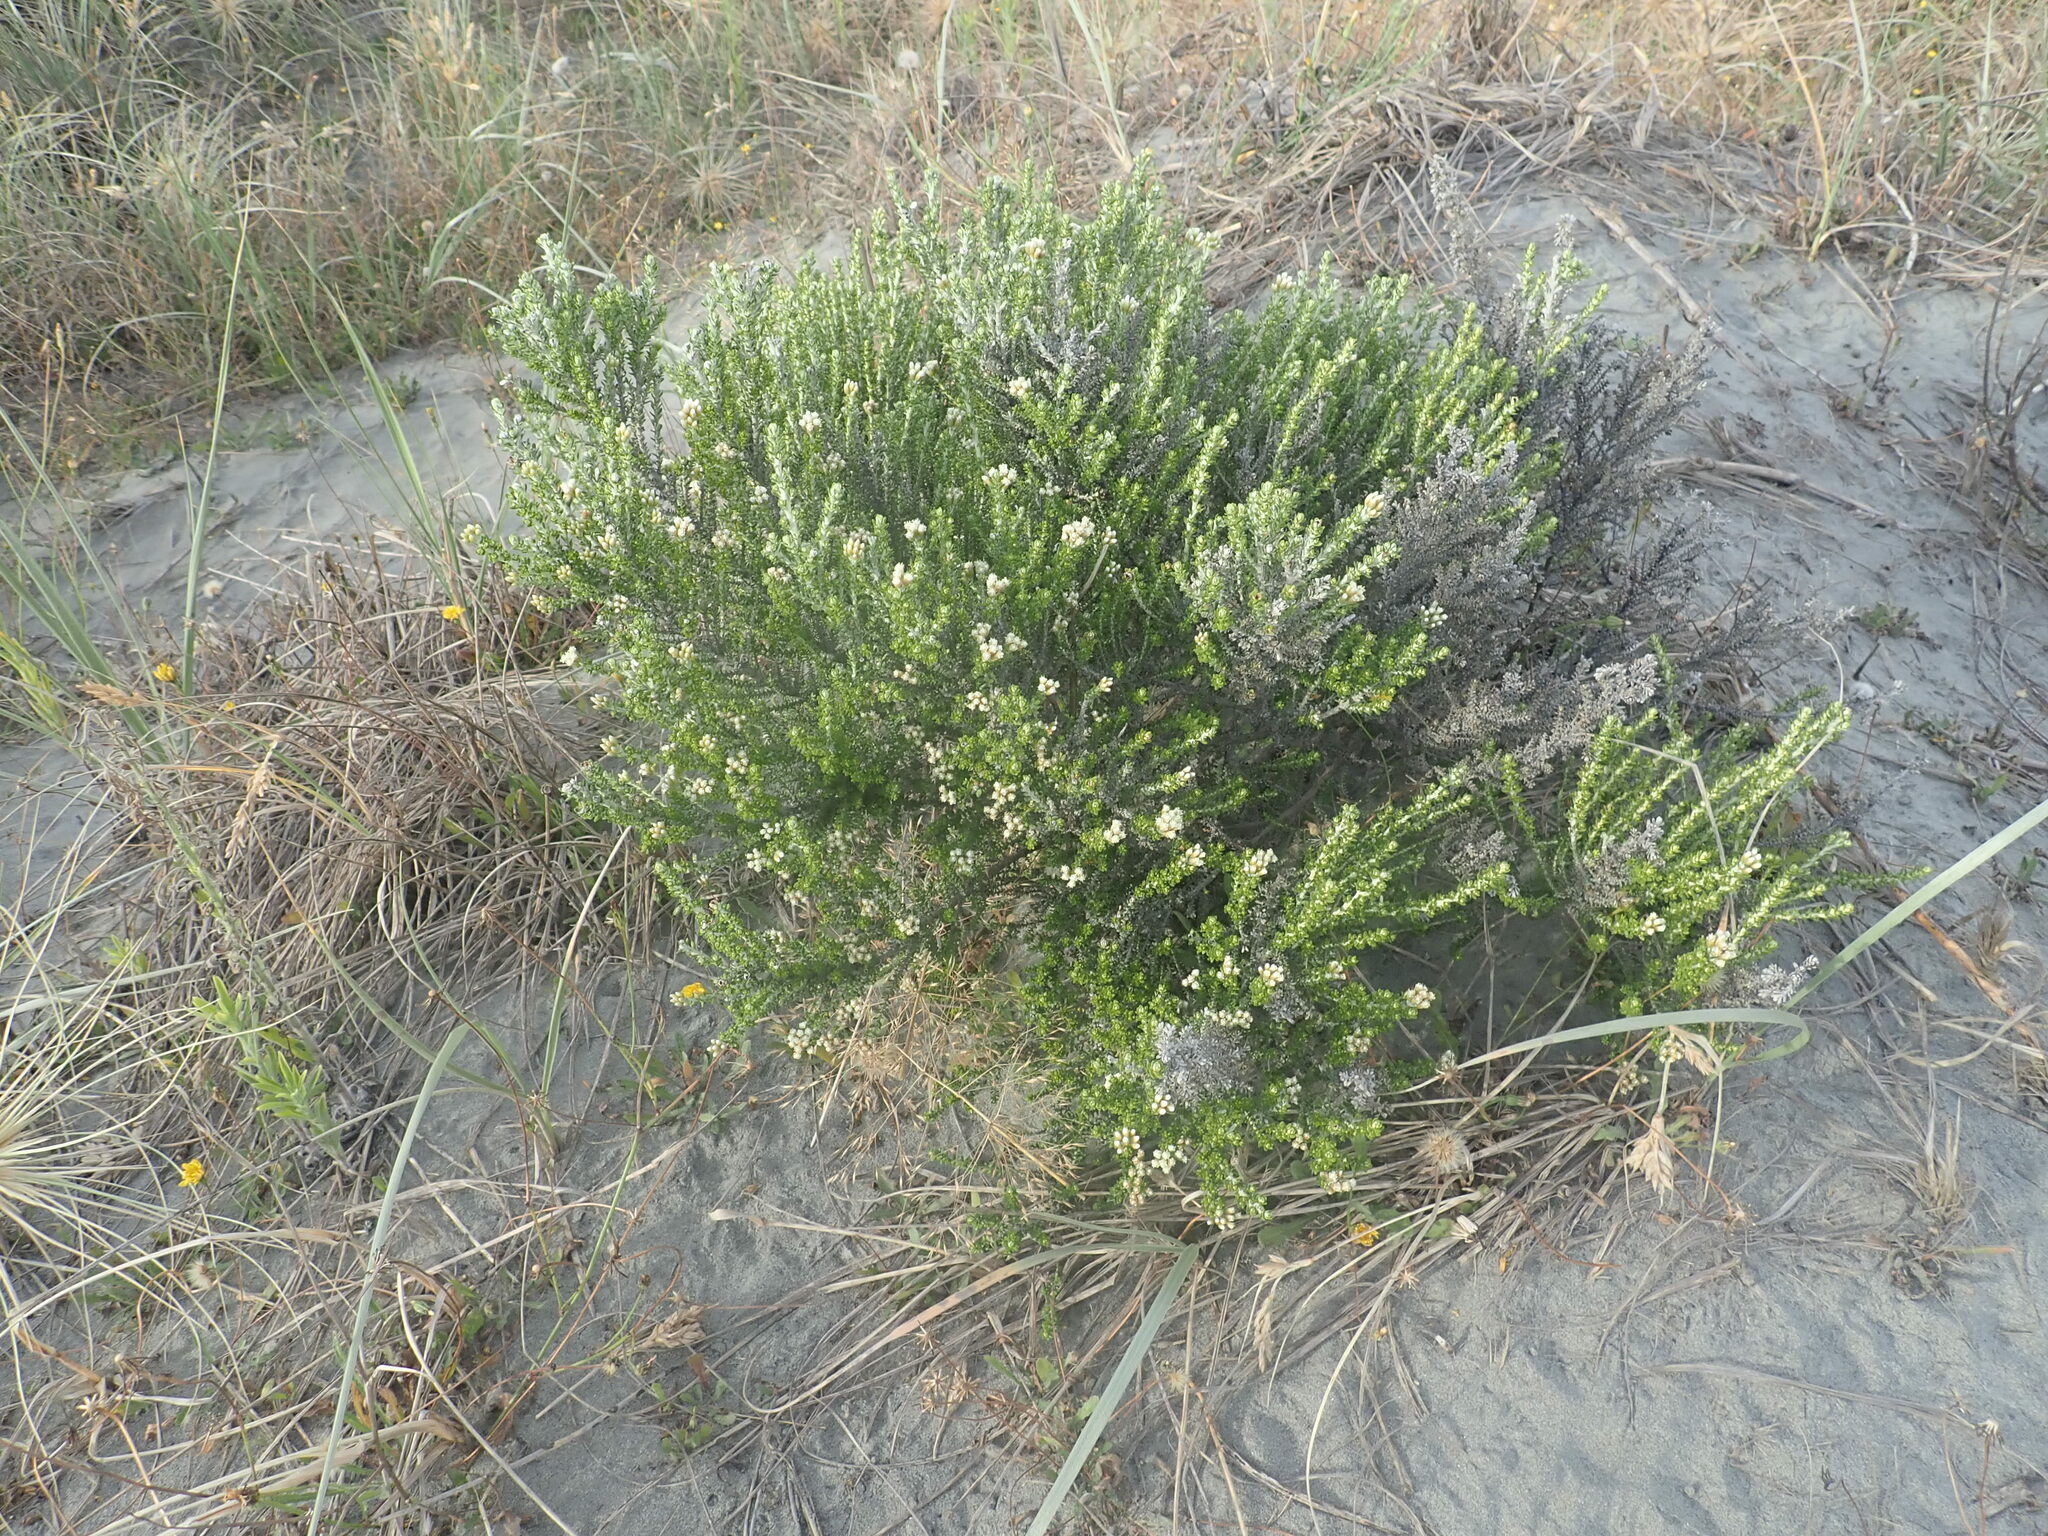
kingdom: Plantae
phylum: Tracheophyta
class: Magnoliopsida
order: Asterales
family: Asteraceae
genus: Ozothamnus
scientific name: Ozothamnus leptophyllus
